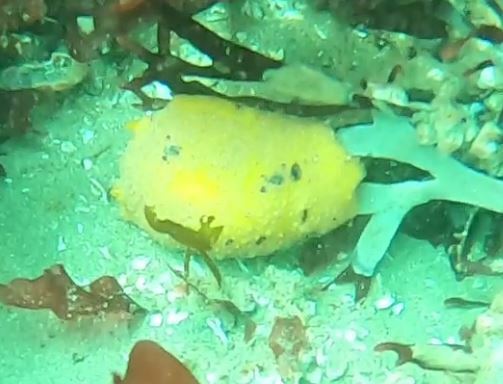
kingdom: Animalia
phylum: Mollusca
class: Gastropoda
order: Nudibranchia
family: Dorididae
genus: Doris
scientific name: Doris montereyensis
